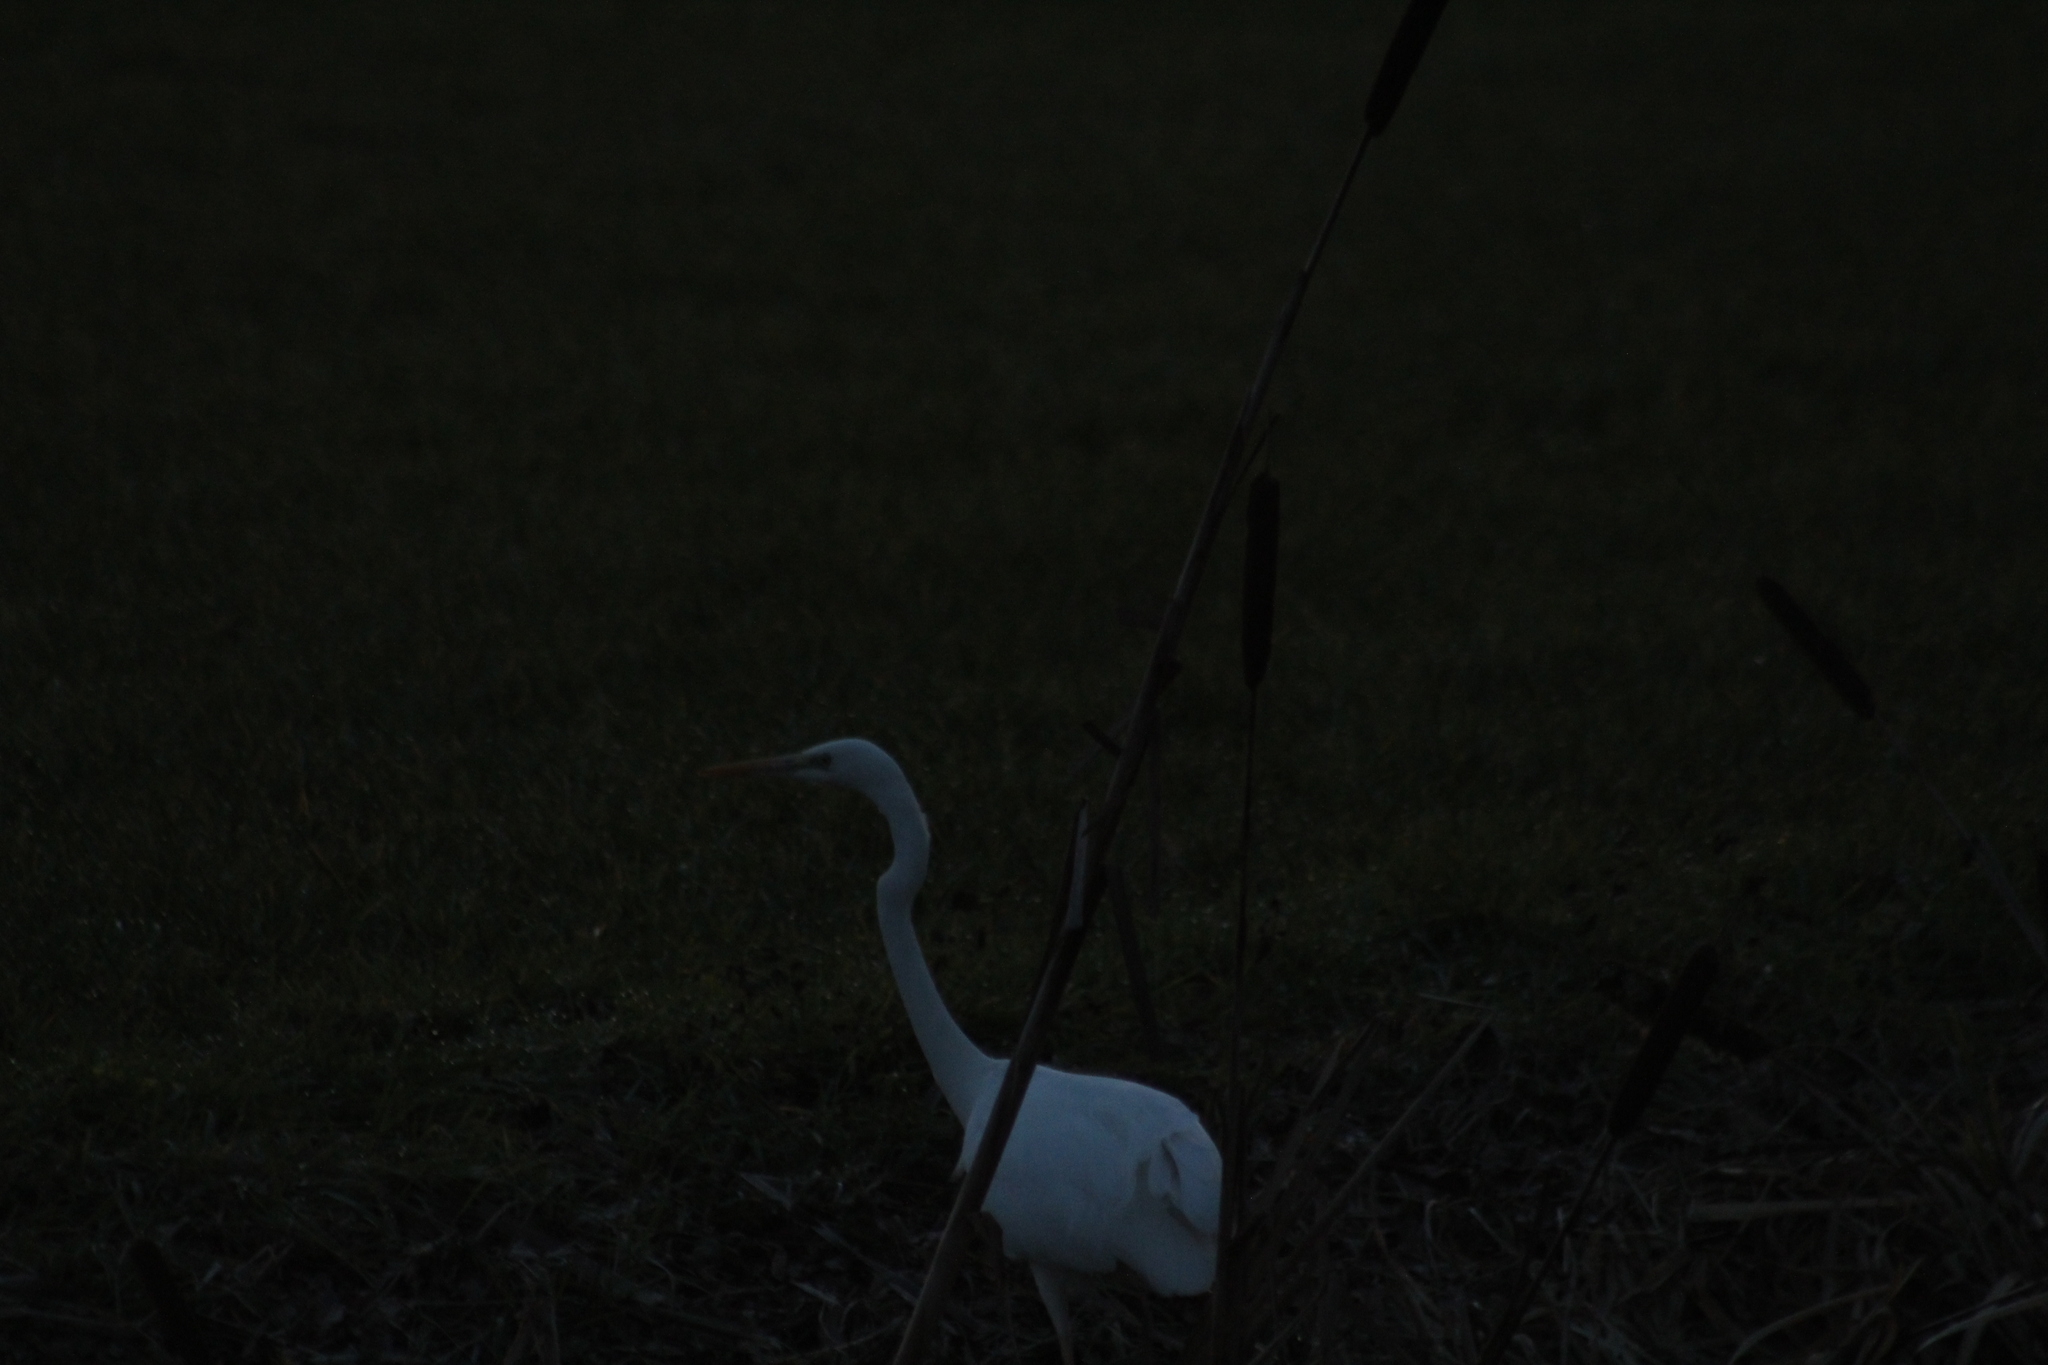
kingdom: Animalia
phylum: Chordata
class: Aves
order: Pelecaniformes
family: Ardeidae
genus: Ardea
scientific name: Ardea alba
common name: Great egret
